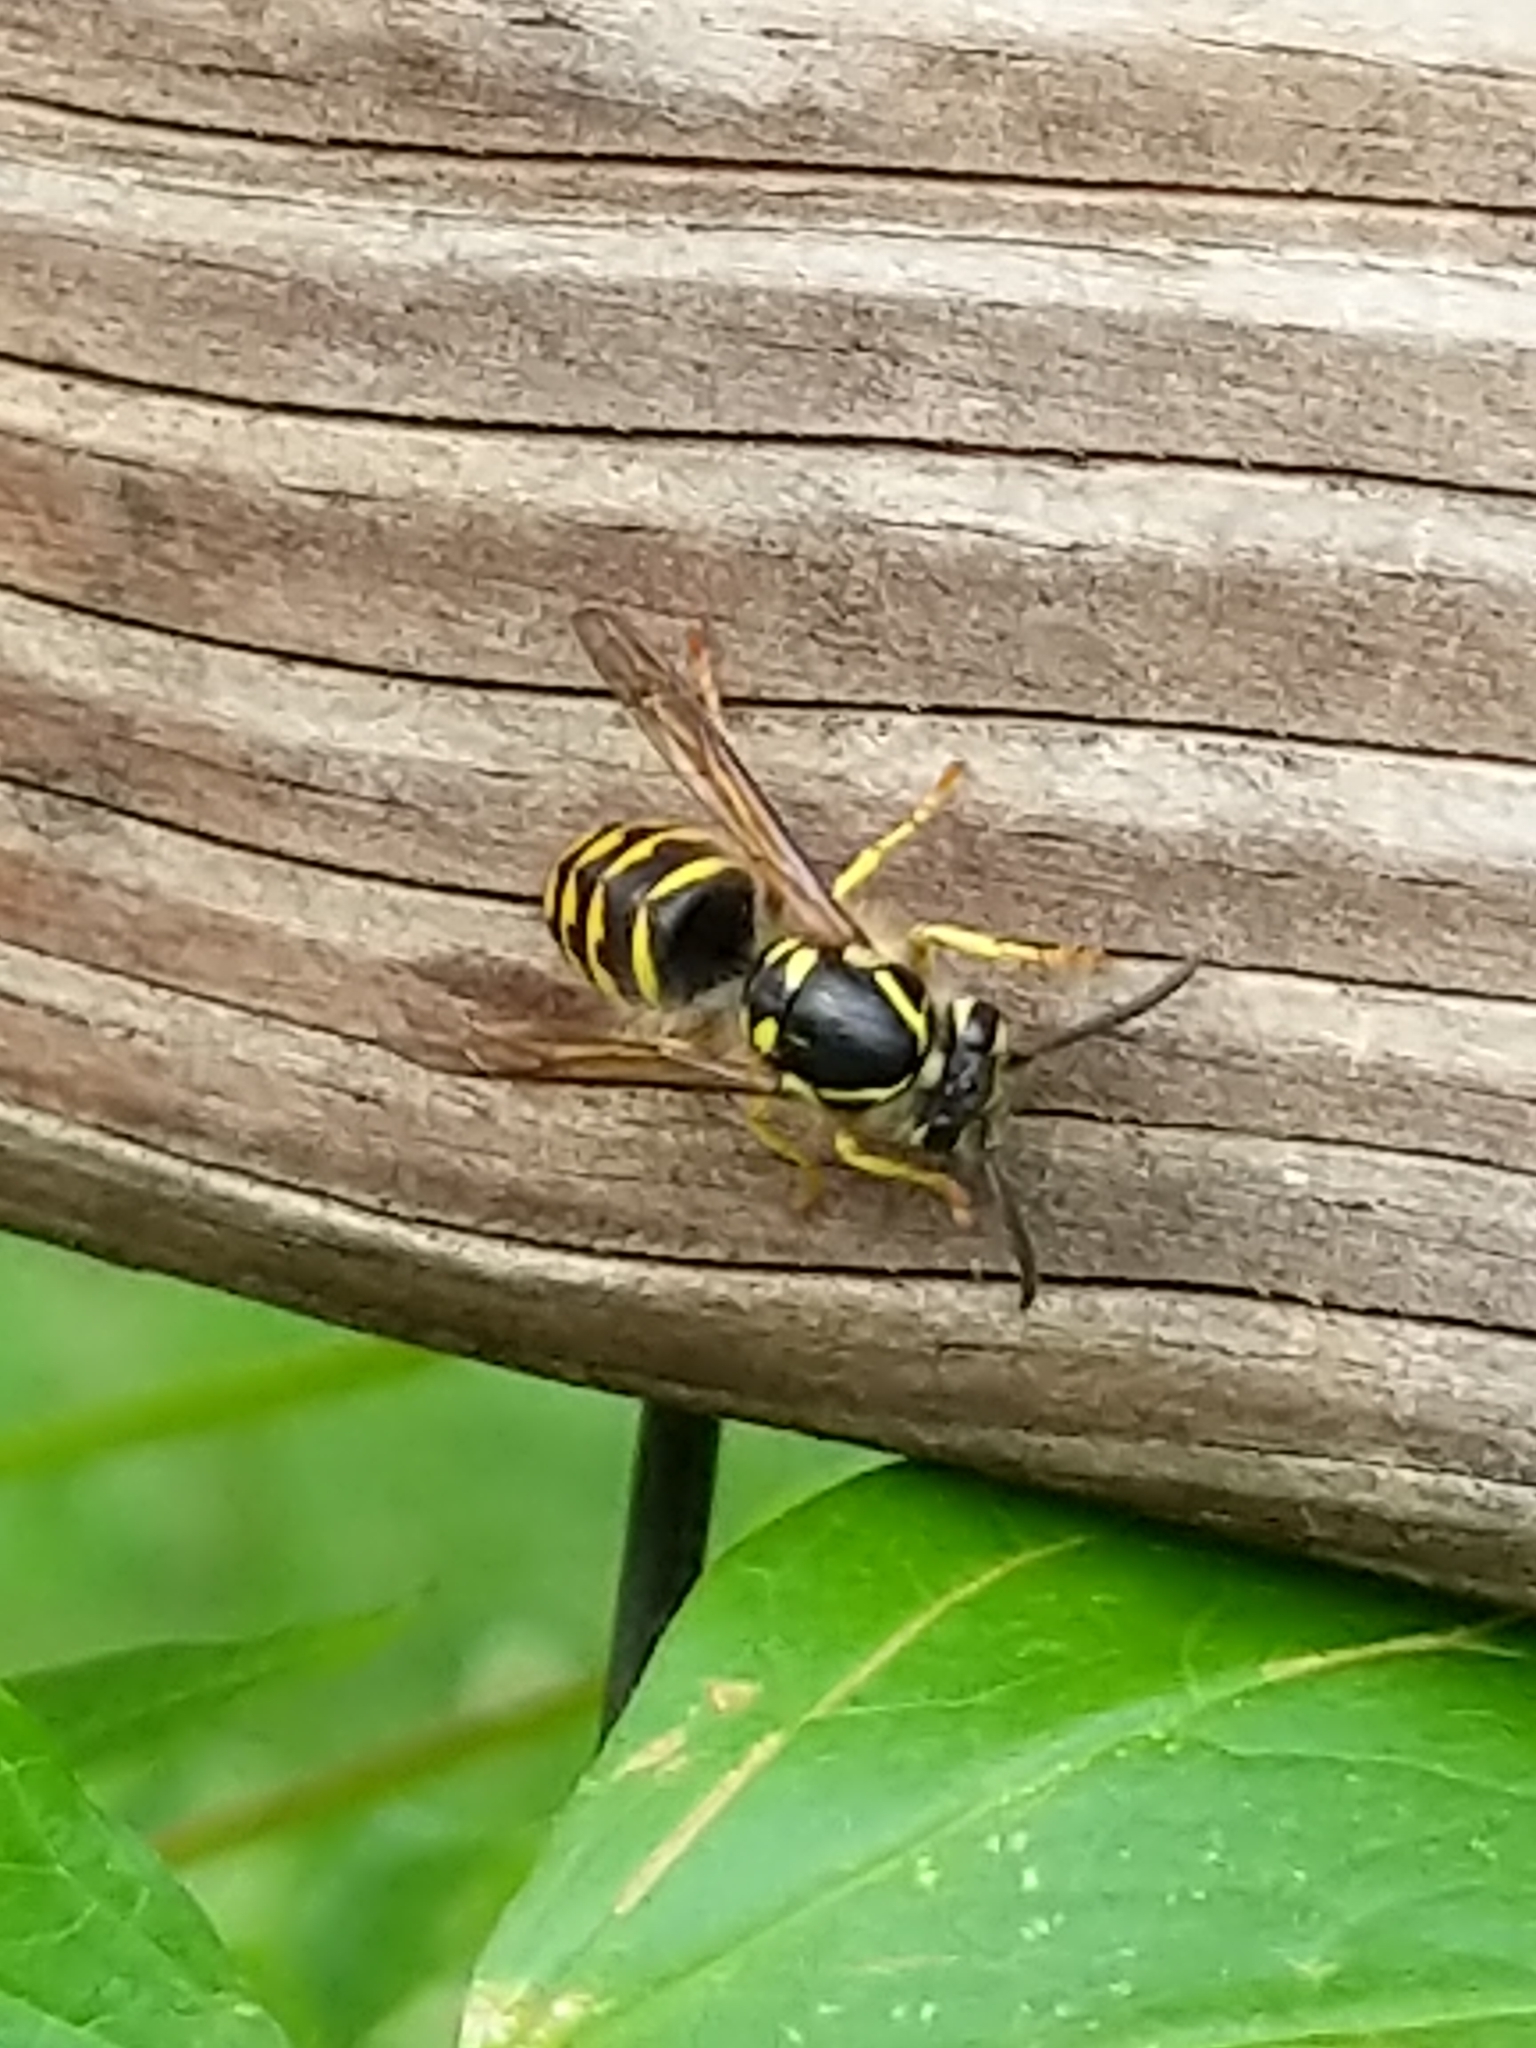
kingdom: Animalia
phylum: Arthropoda
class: Insecta
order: Hymenoptera
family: Vespidae
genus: Dolichovespula
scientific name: Dolichovespula arenaria
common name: Aerial yellowjacket
